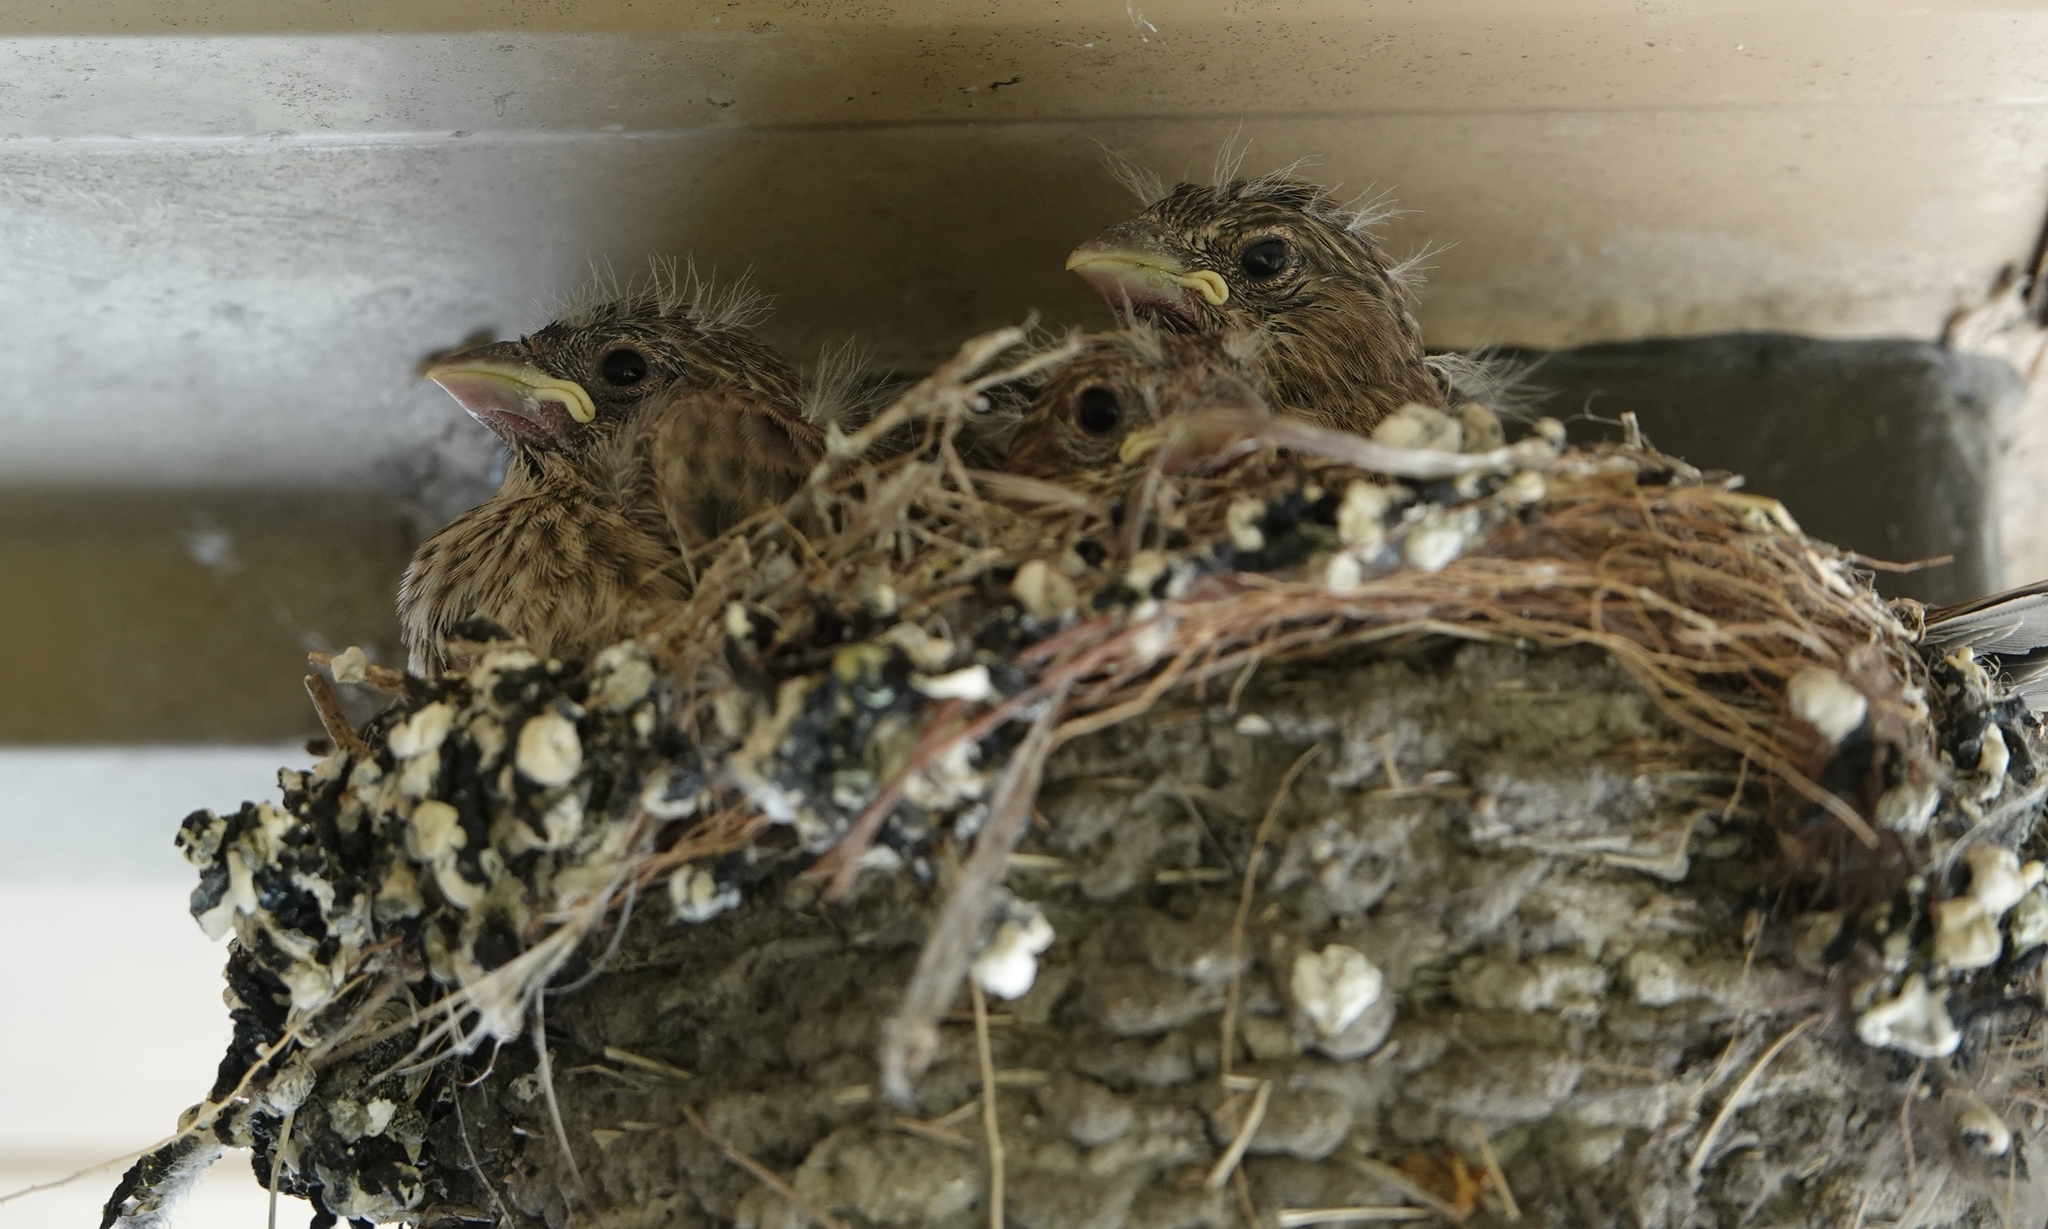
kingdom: Animalia
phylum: Chordata
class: Aves
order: Passeriformes
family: Fringillidae
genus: Haemorhous
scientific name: Haemorhous mexicanus
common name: House finch
